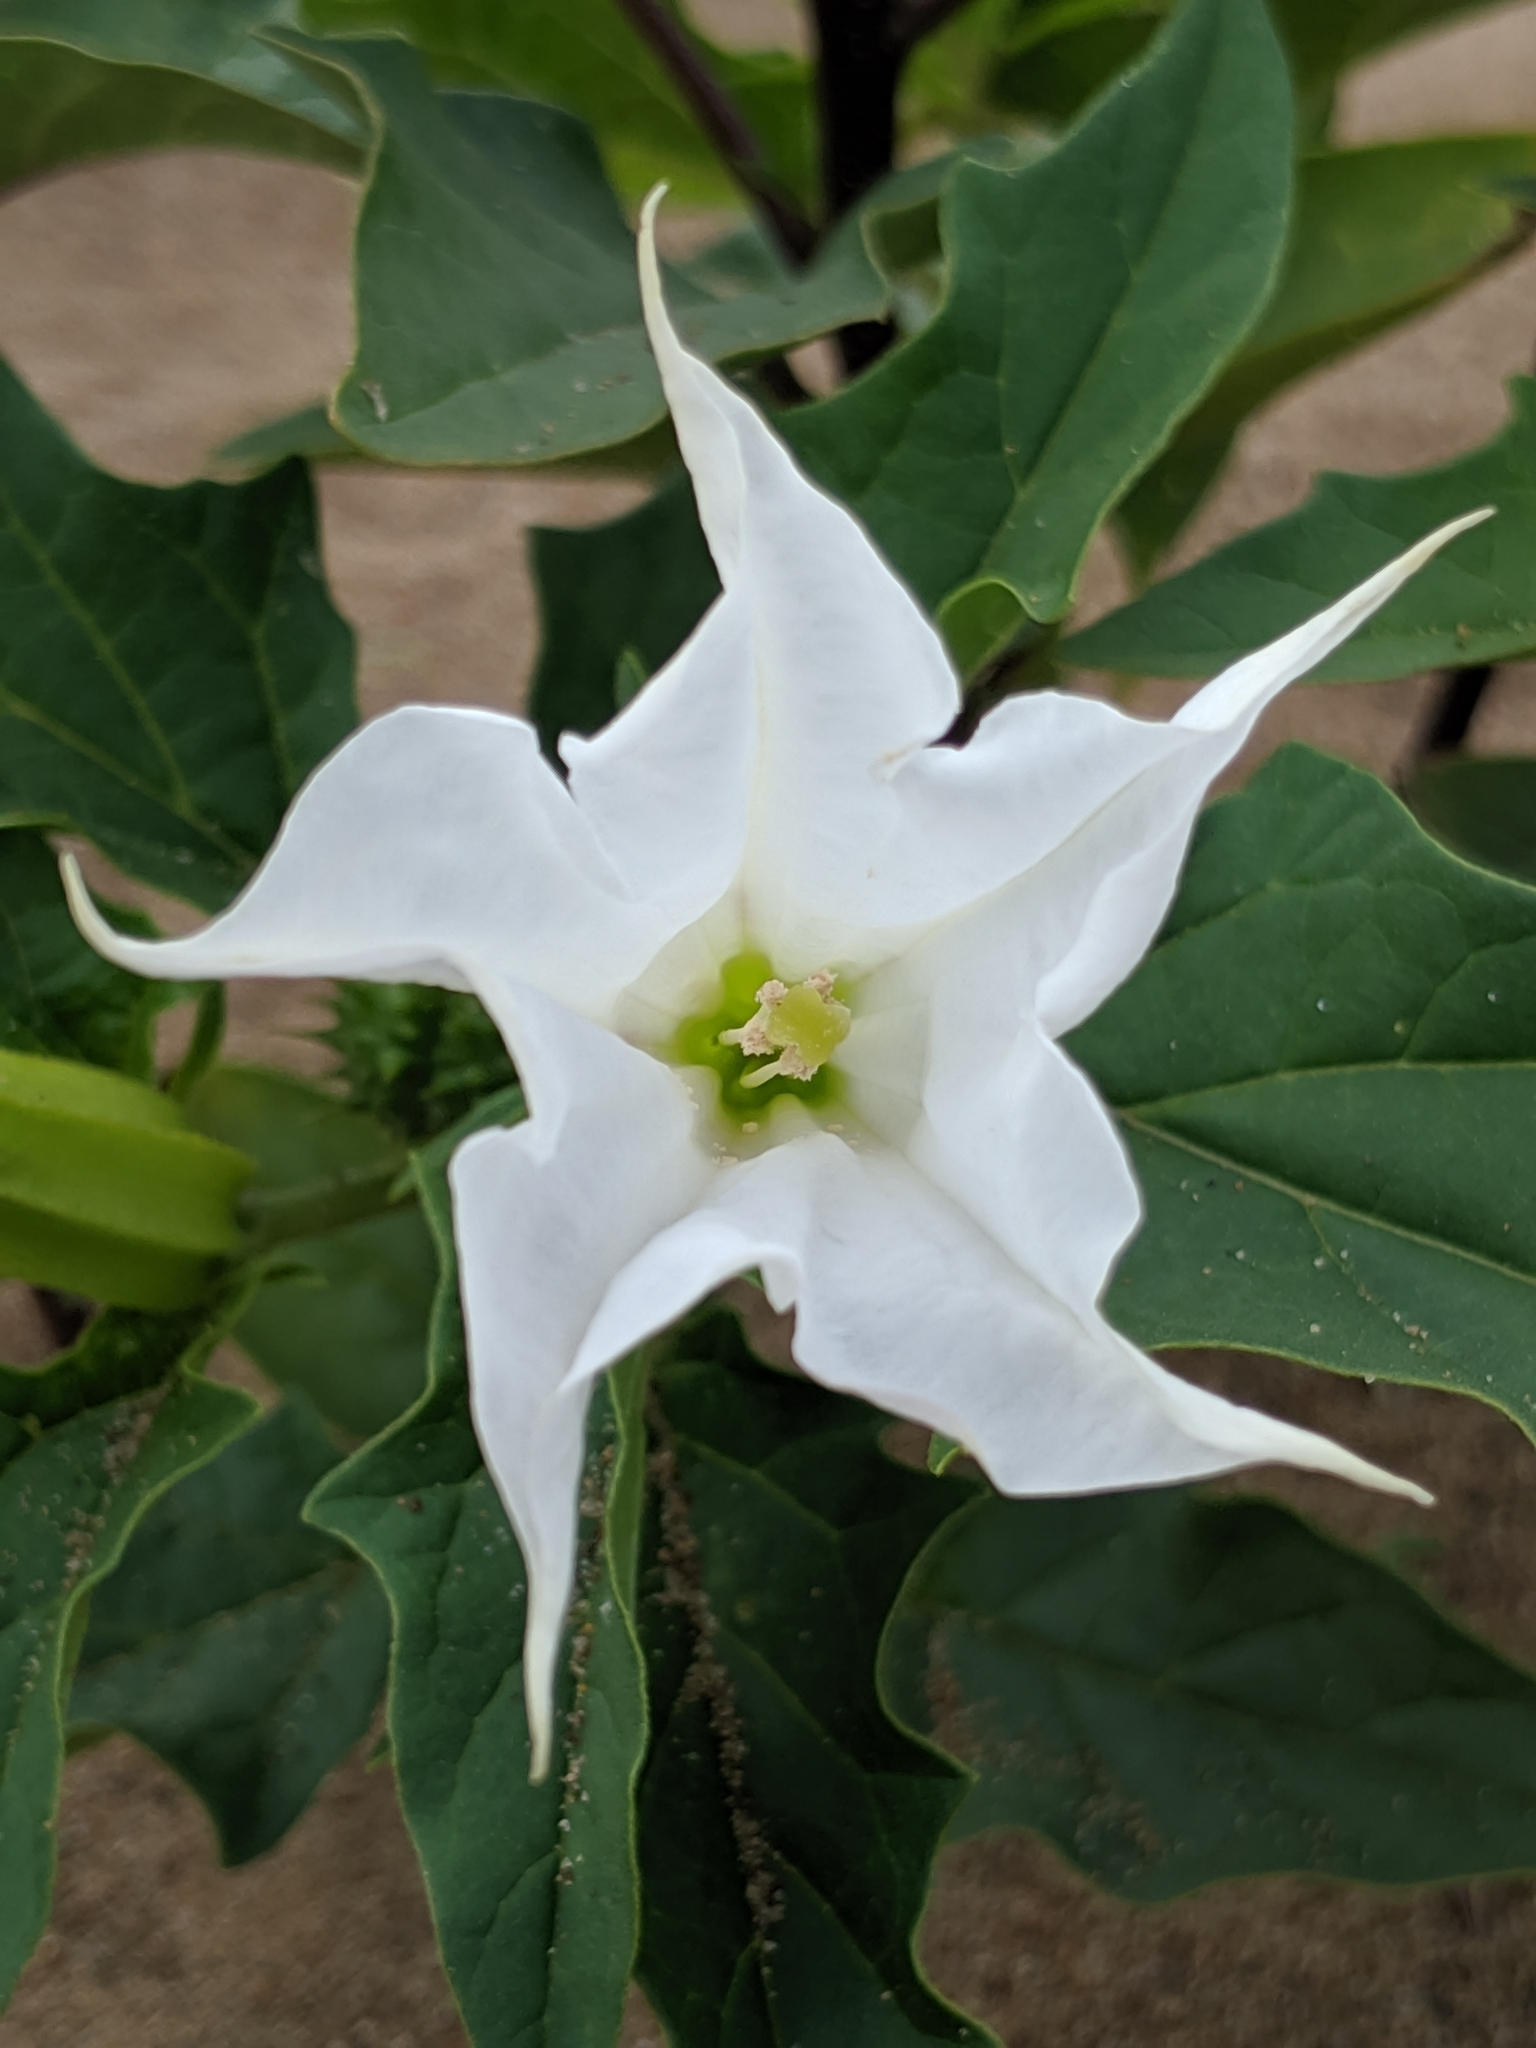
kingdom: Plantae
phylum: Tracheophyta
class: Magnoliopsida
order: Solanales
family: Solanaceae
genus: Datura
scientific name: Datura stramonium
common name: Thorn-apple
